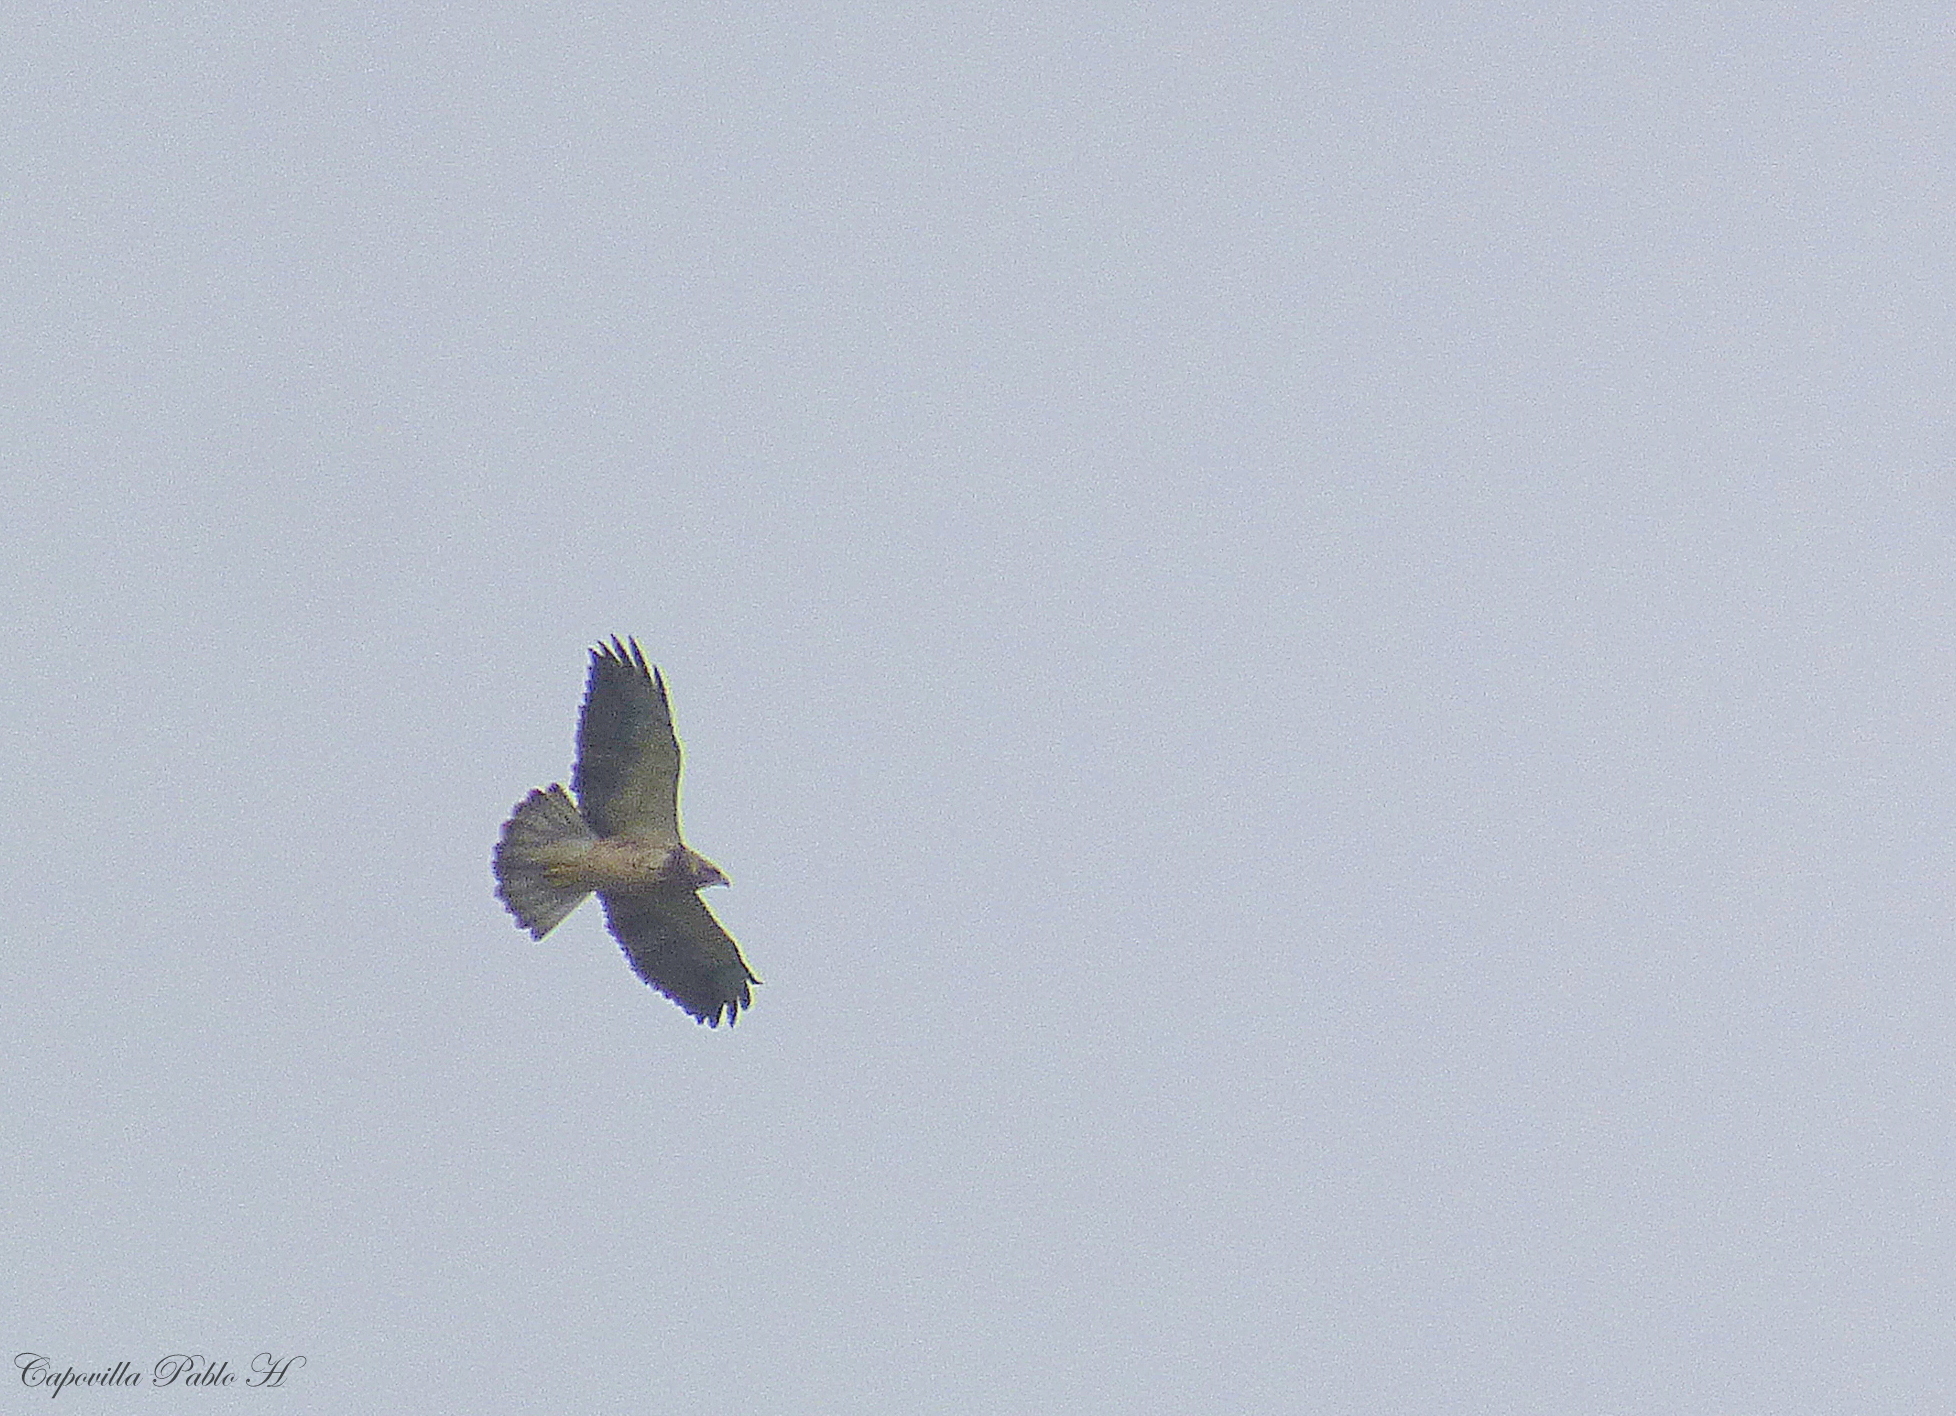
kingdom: Animalia
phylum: Chordata
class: Aves
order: Accipitriformes
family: Accipitridae
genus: Buteo
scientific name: Buteo swainsoni
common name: Swainson's hawk
